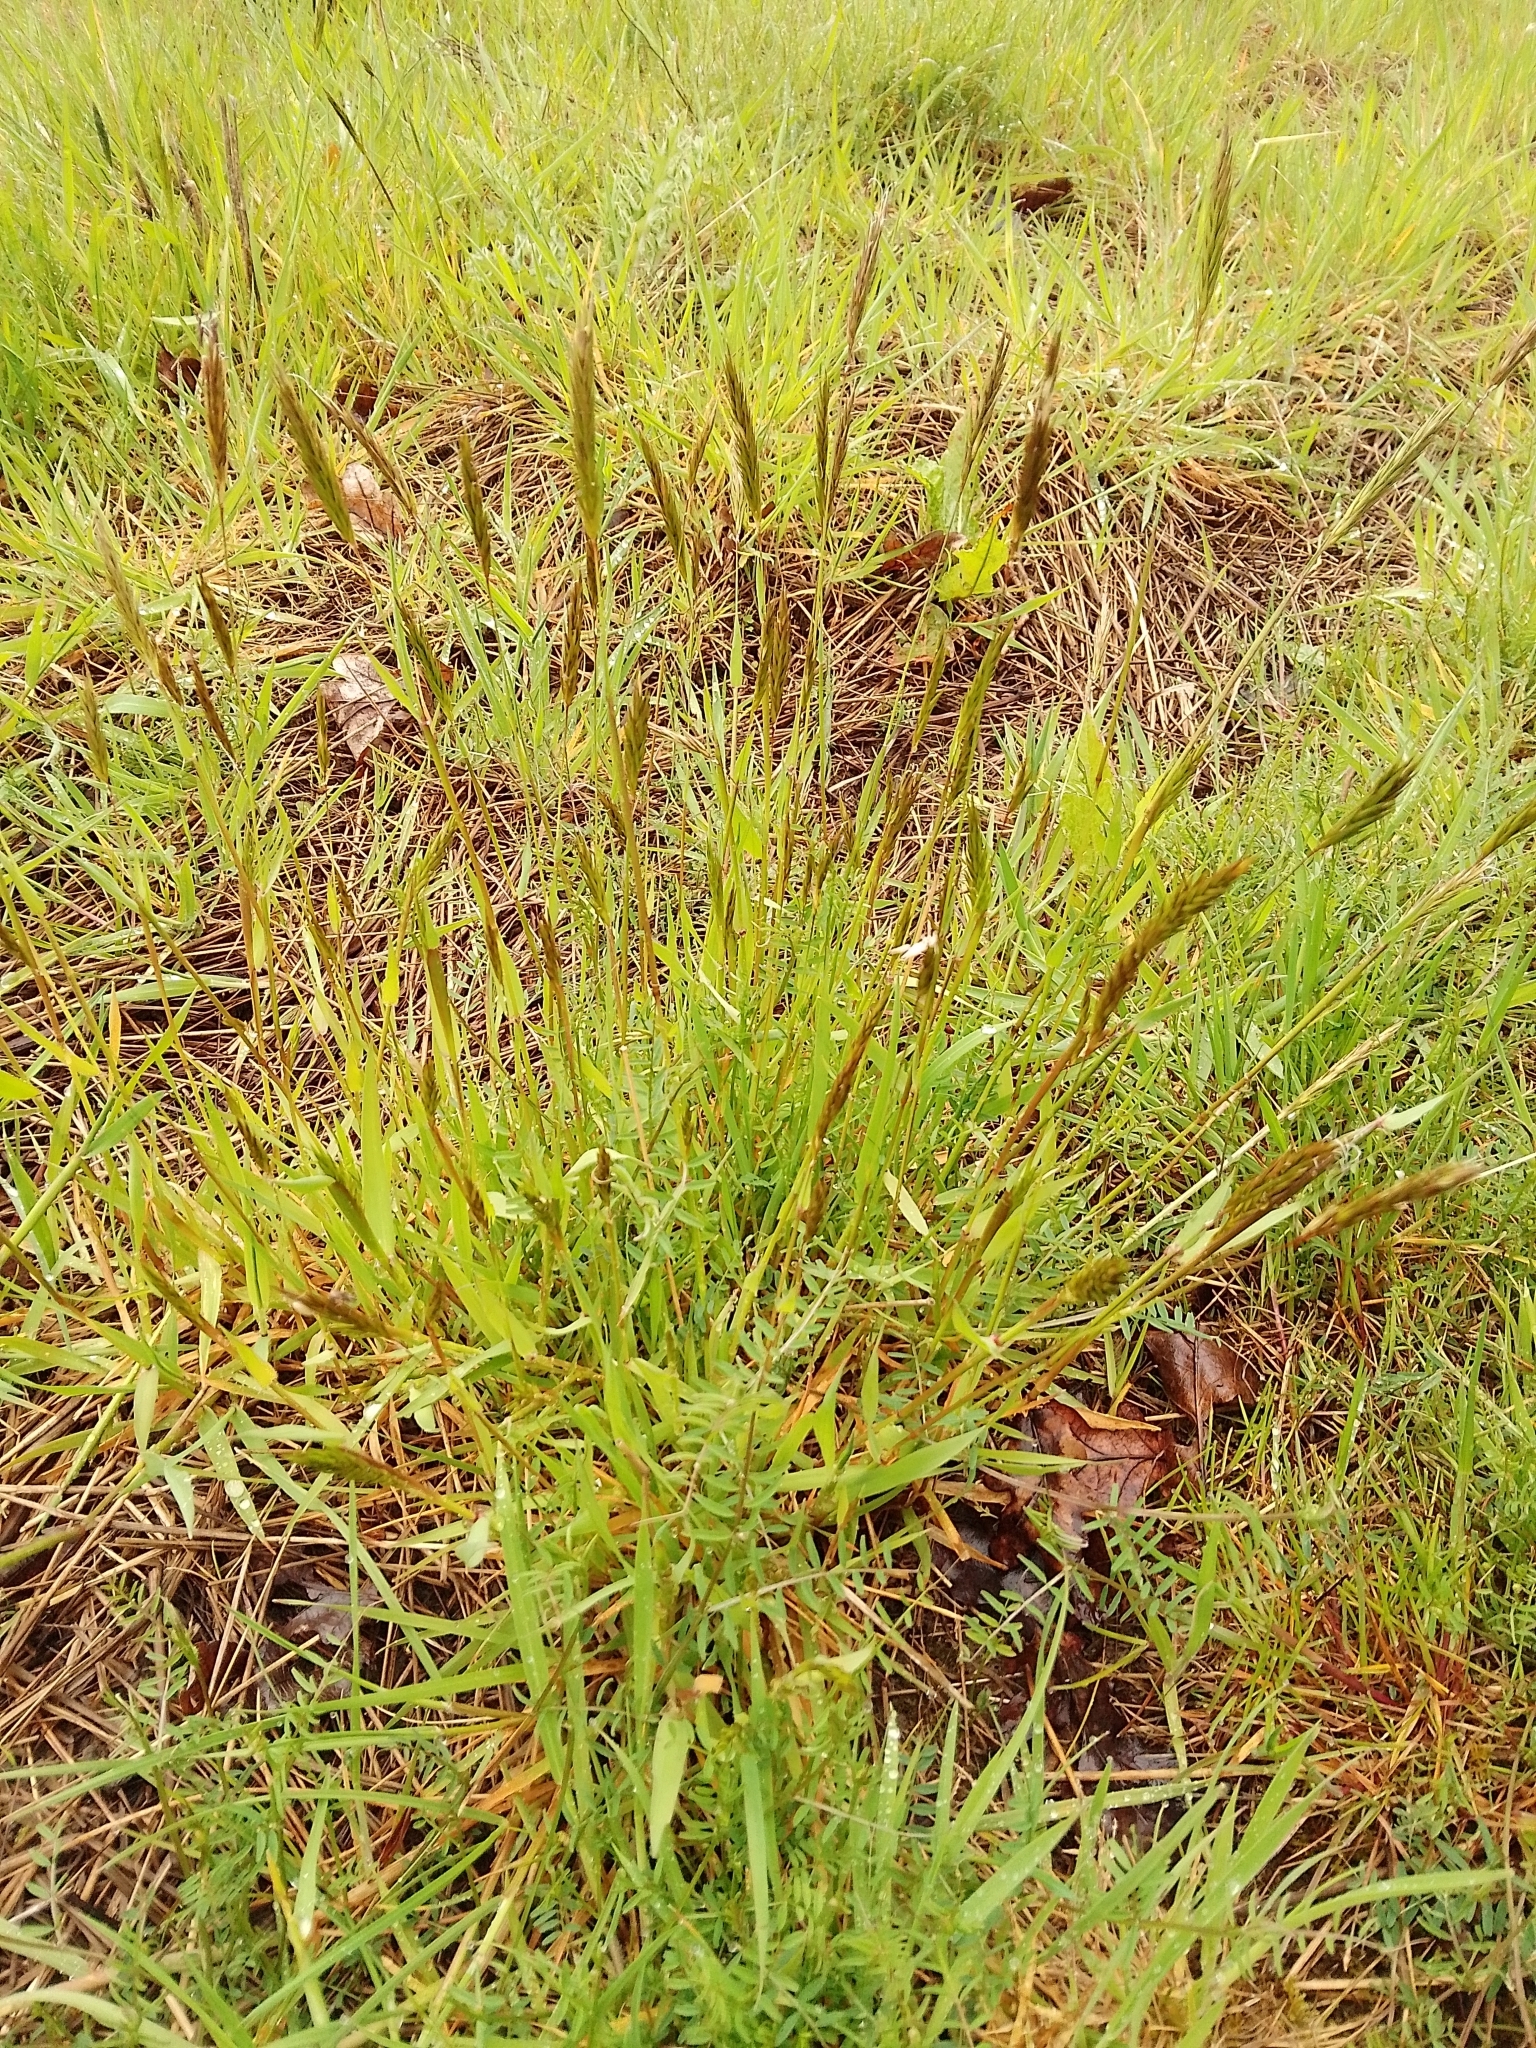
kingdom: Plantae
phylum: Tracheophyta
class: Liliopsida
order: Poales
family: Poaceae
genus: Anthoxanthum
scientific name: Anthoxanthum odoratum
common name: Sweet vernalgrass
